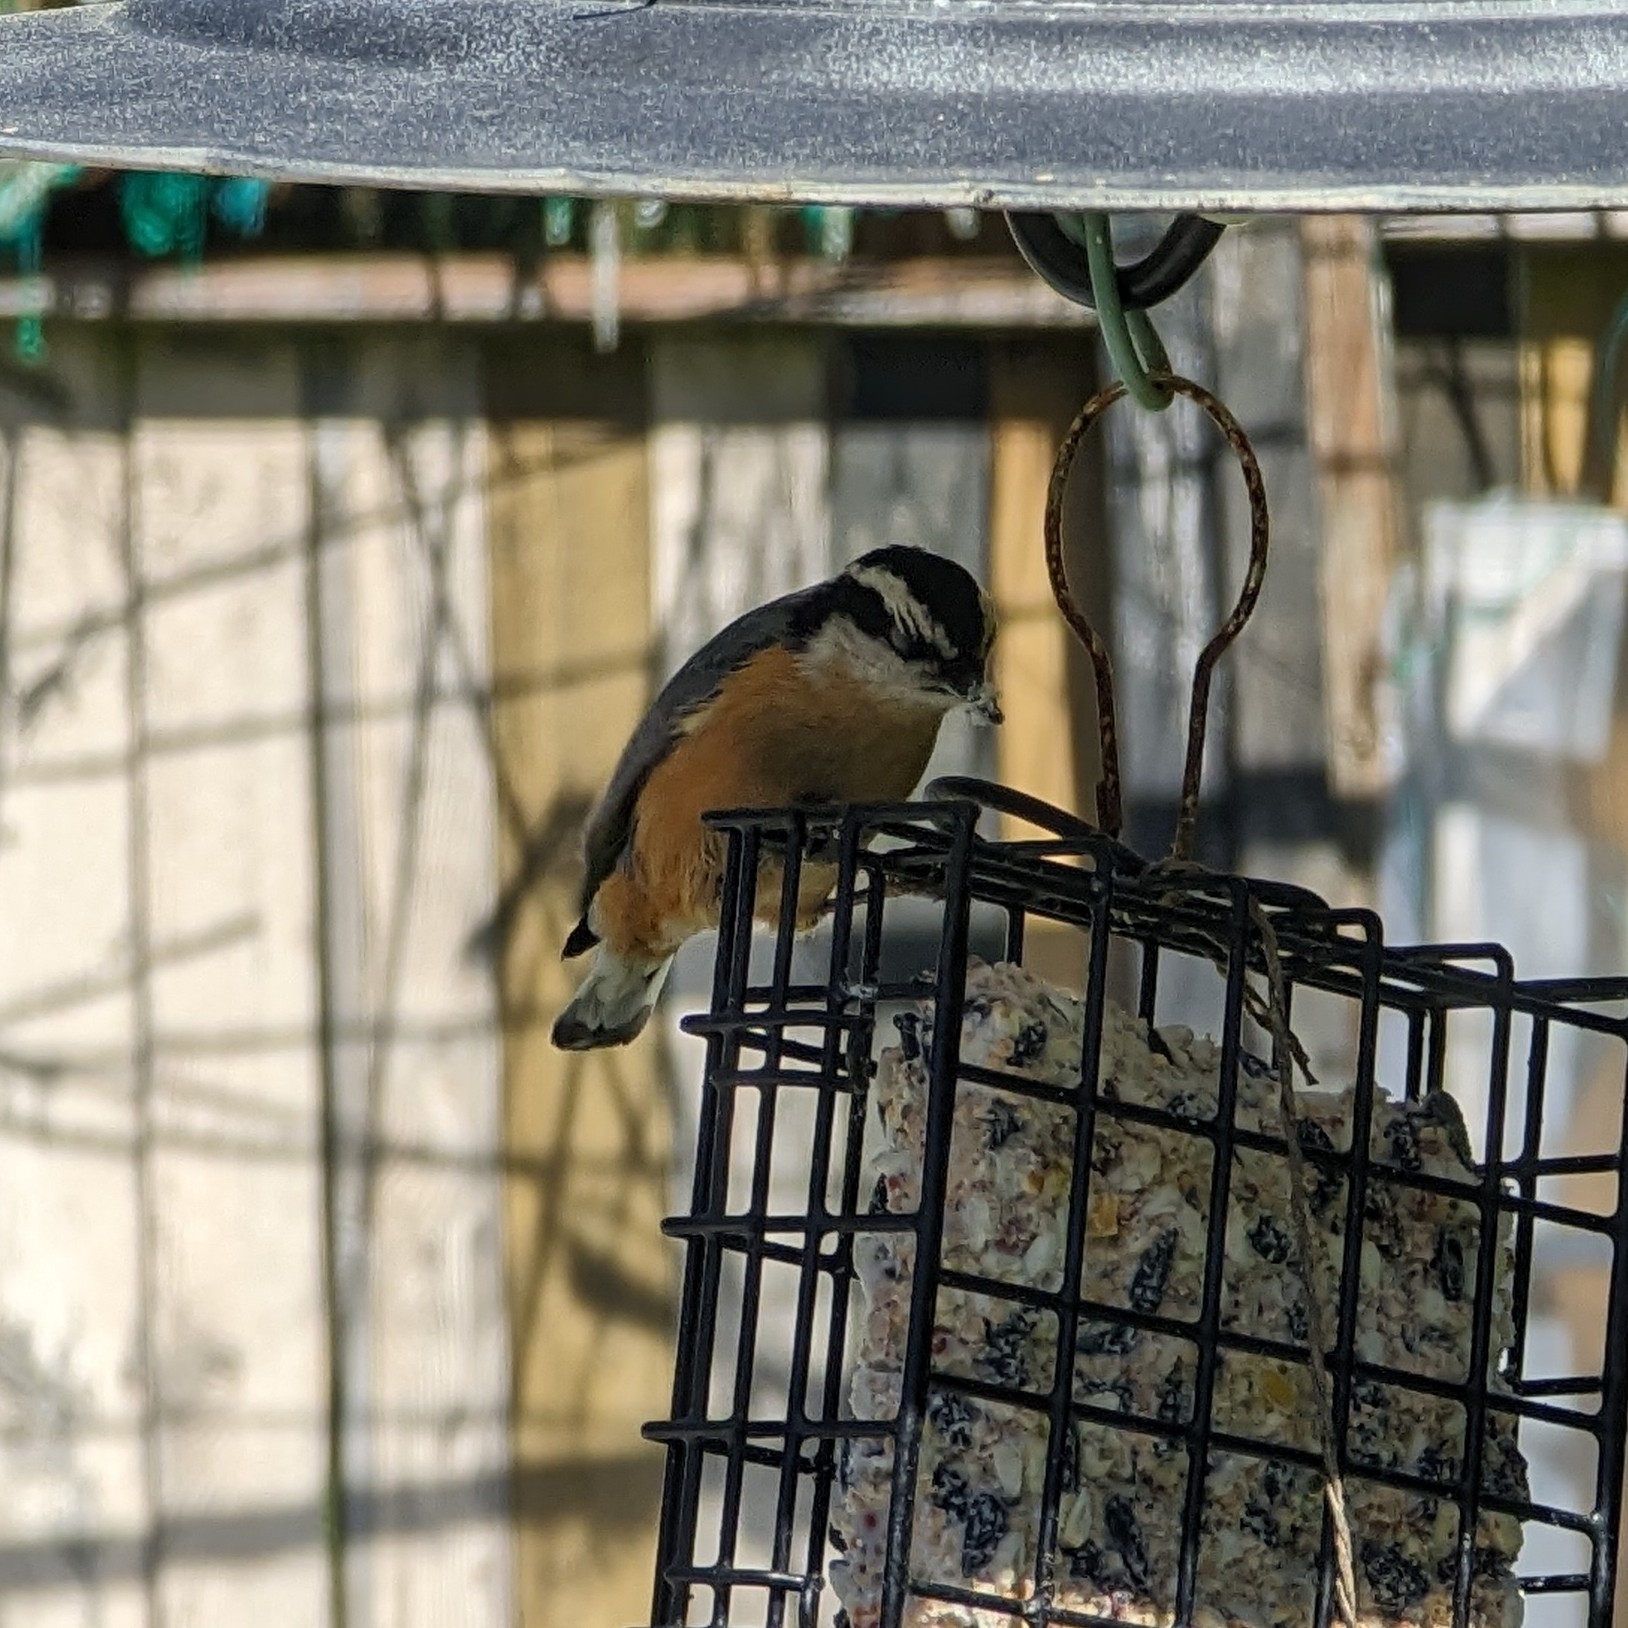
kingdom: Animalia
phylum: Chordata
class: Aves
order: Passeriformes
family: Sittidae
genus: Sitta
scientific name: Sitta canadensis
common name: Red-breasted nuthatch
